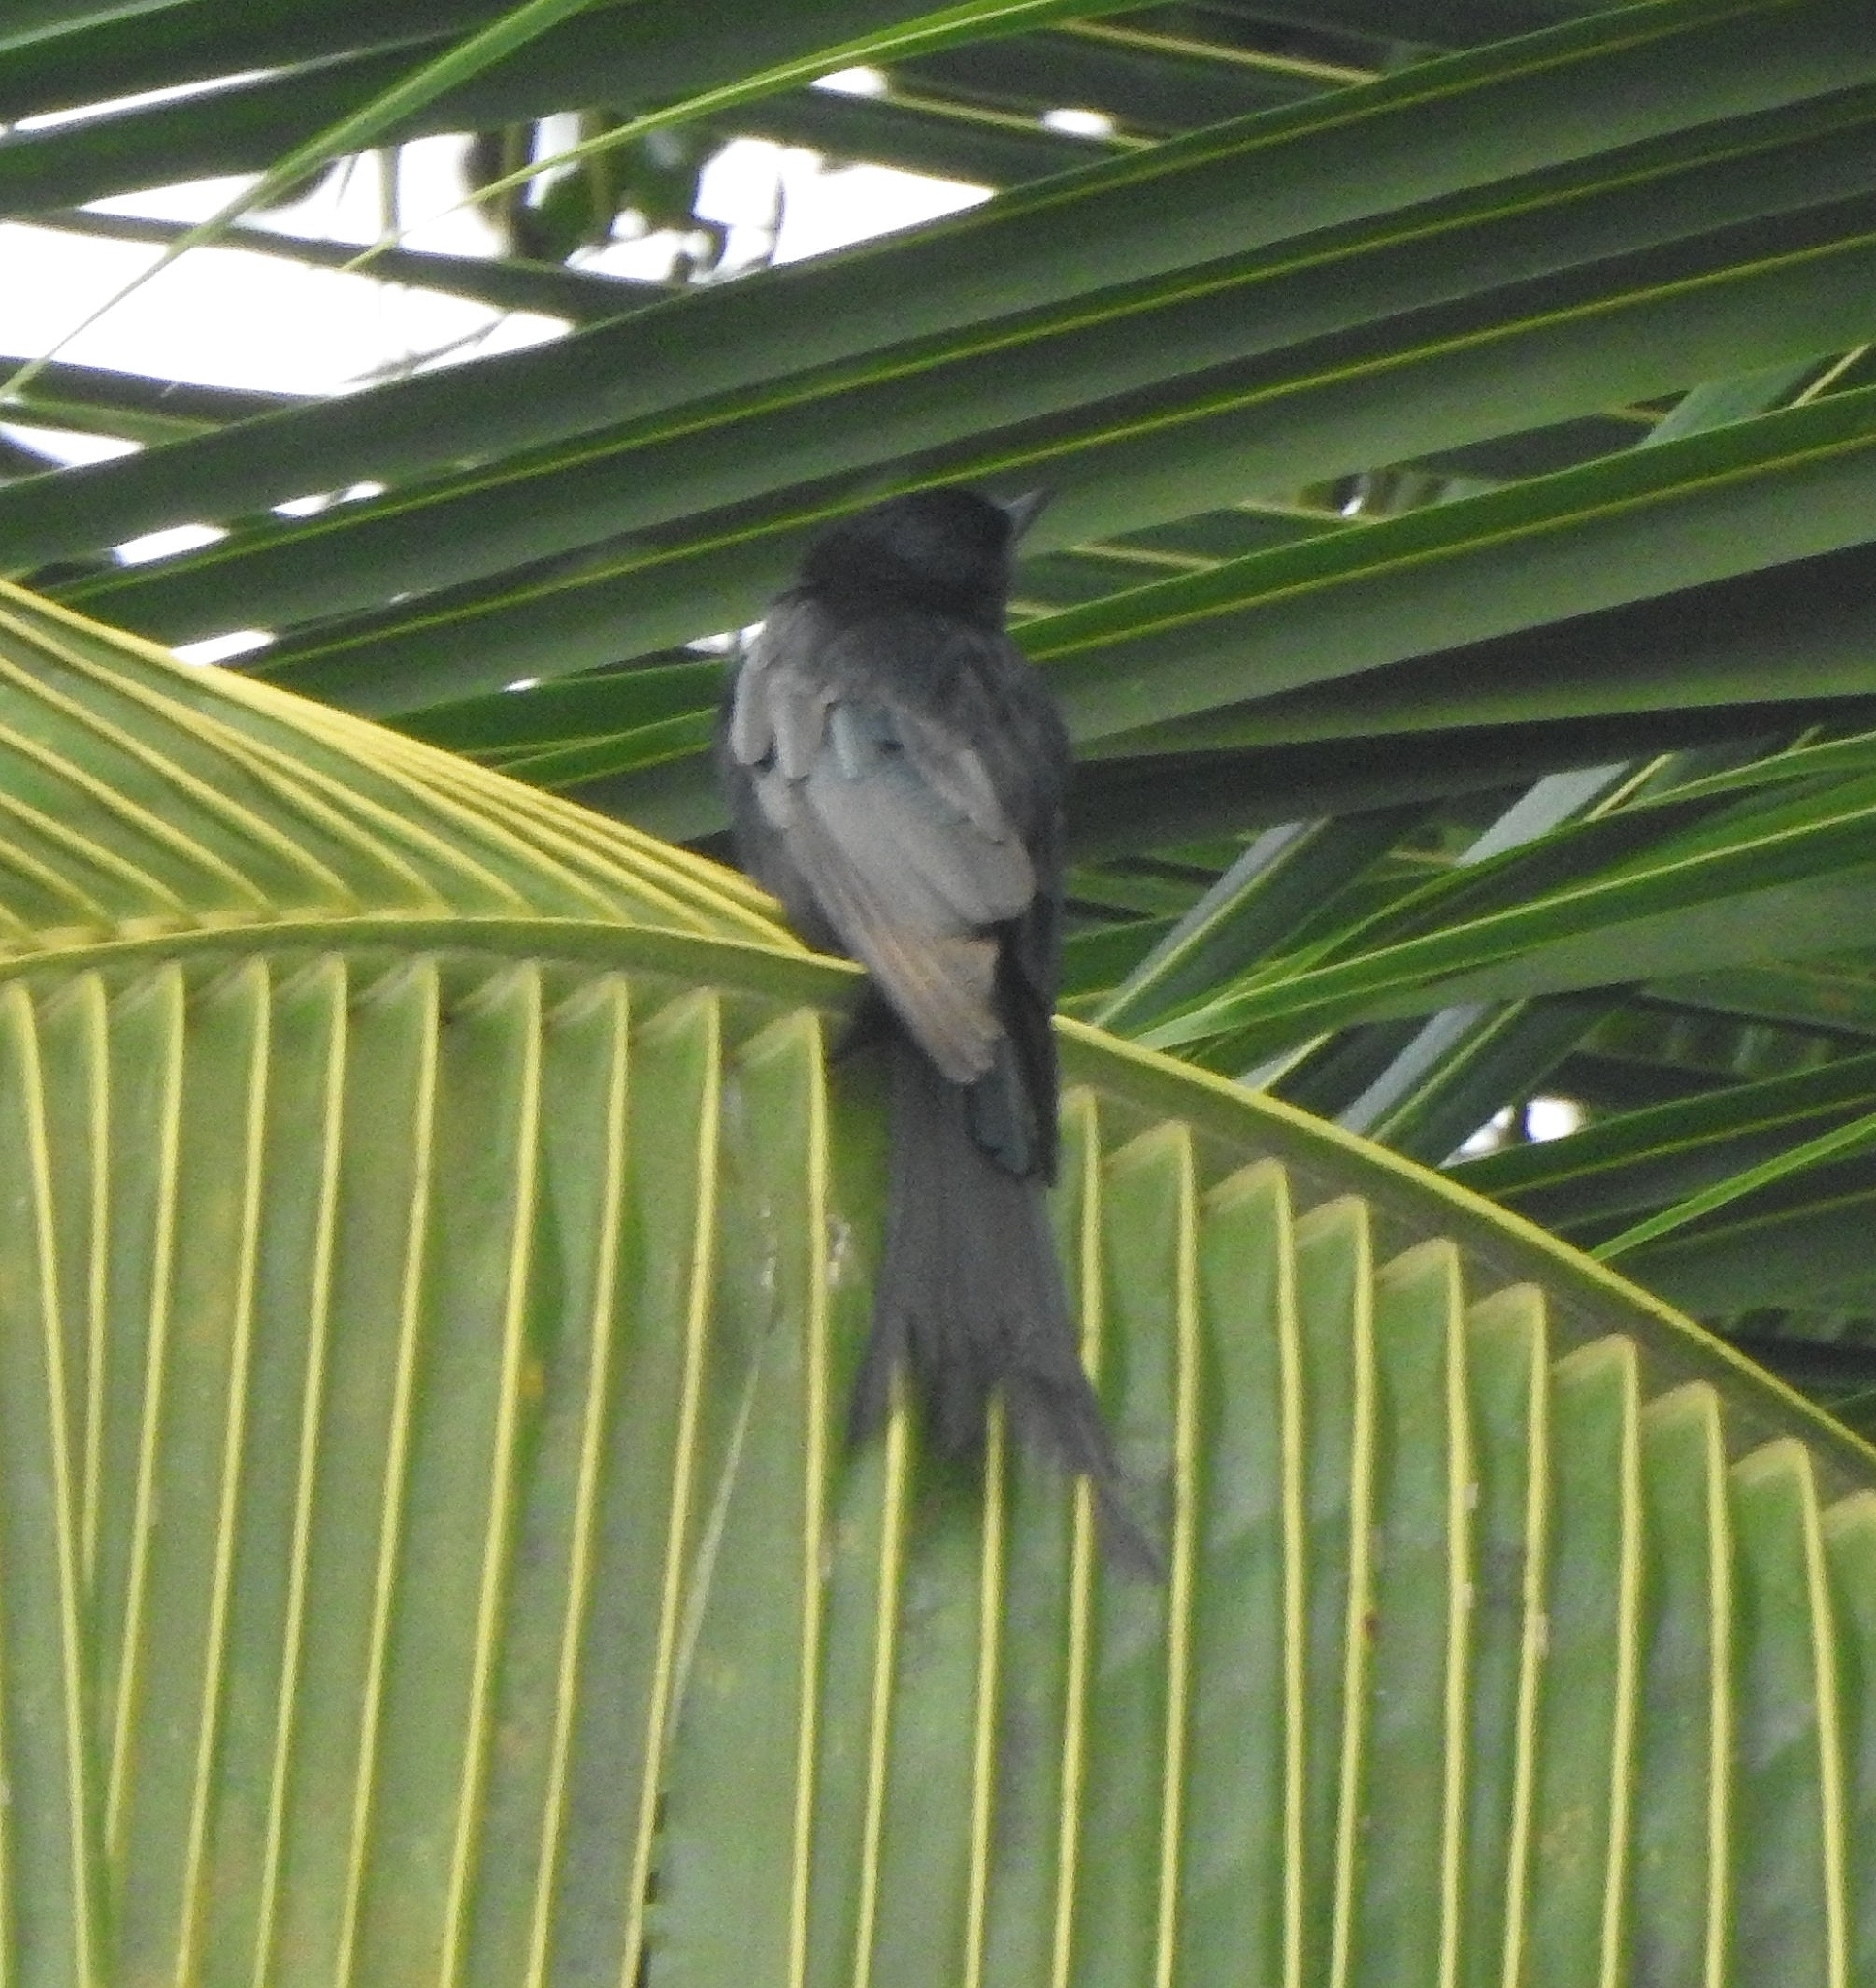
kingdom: Animalia
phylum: Chordata
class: Aves
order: Passeriformes
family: Dicruridae
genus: Dicrurus
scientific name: Dicrurus macrocercus
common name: Black drongo
